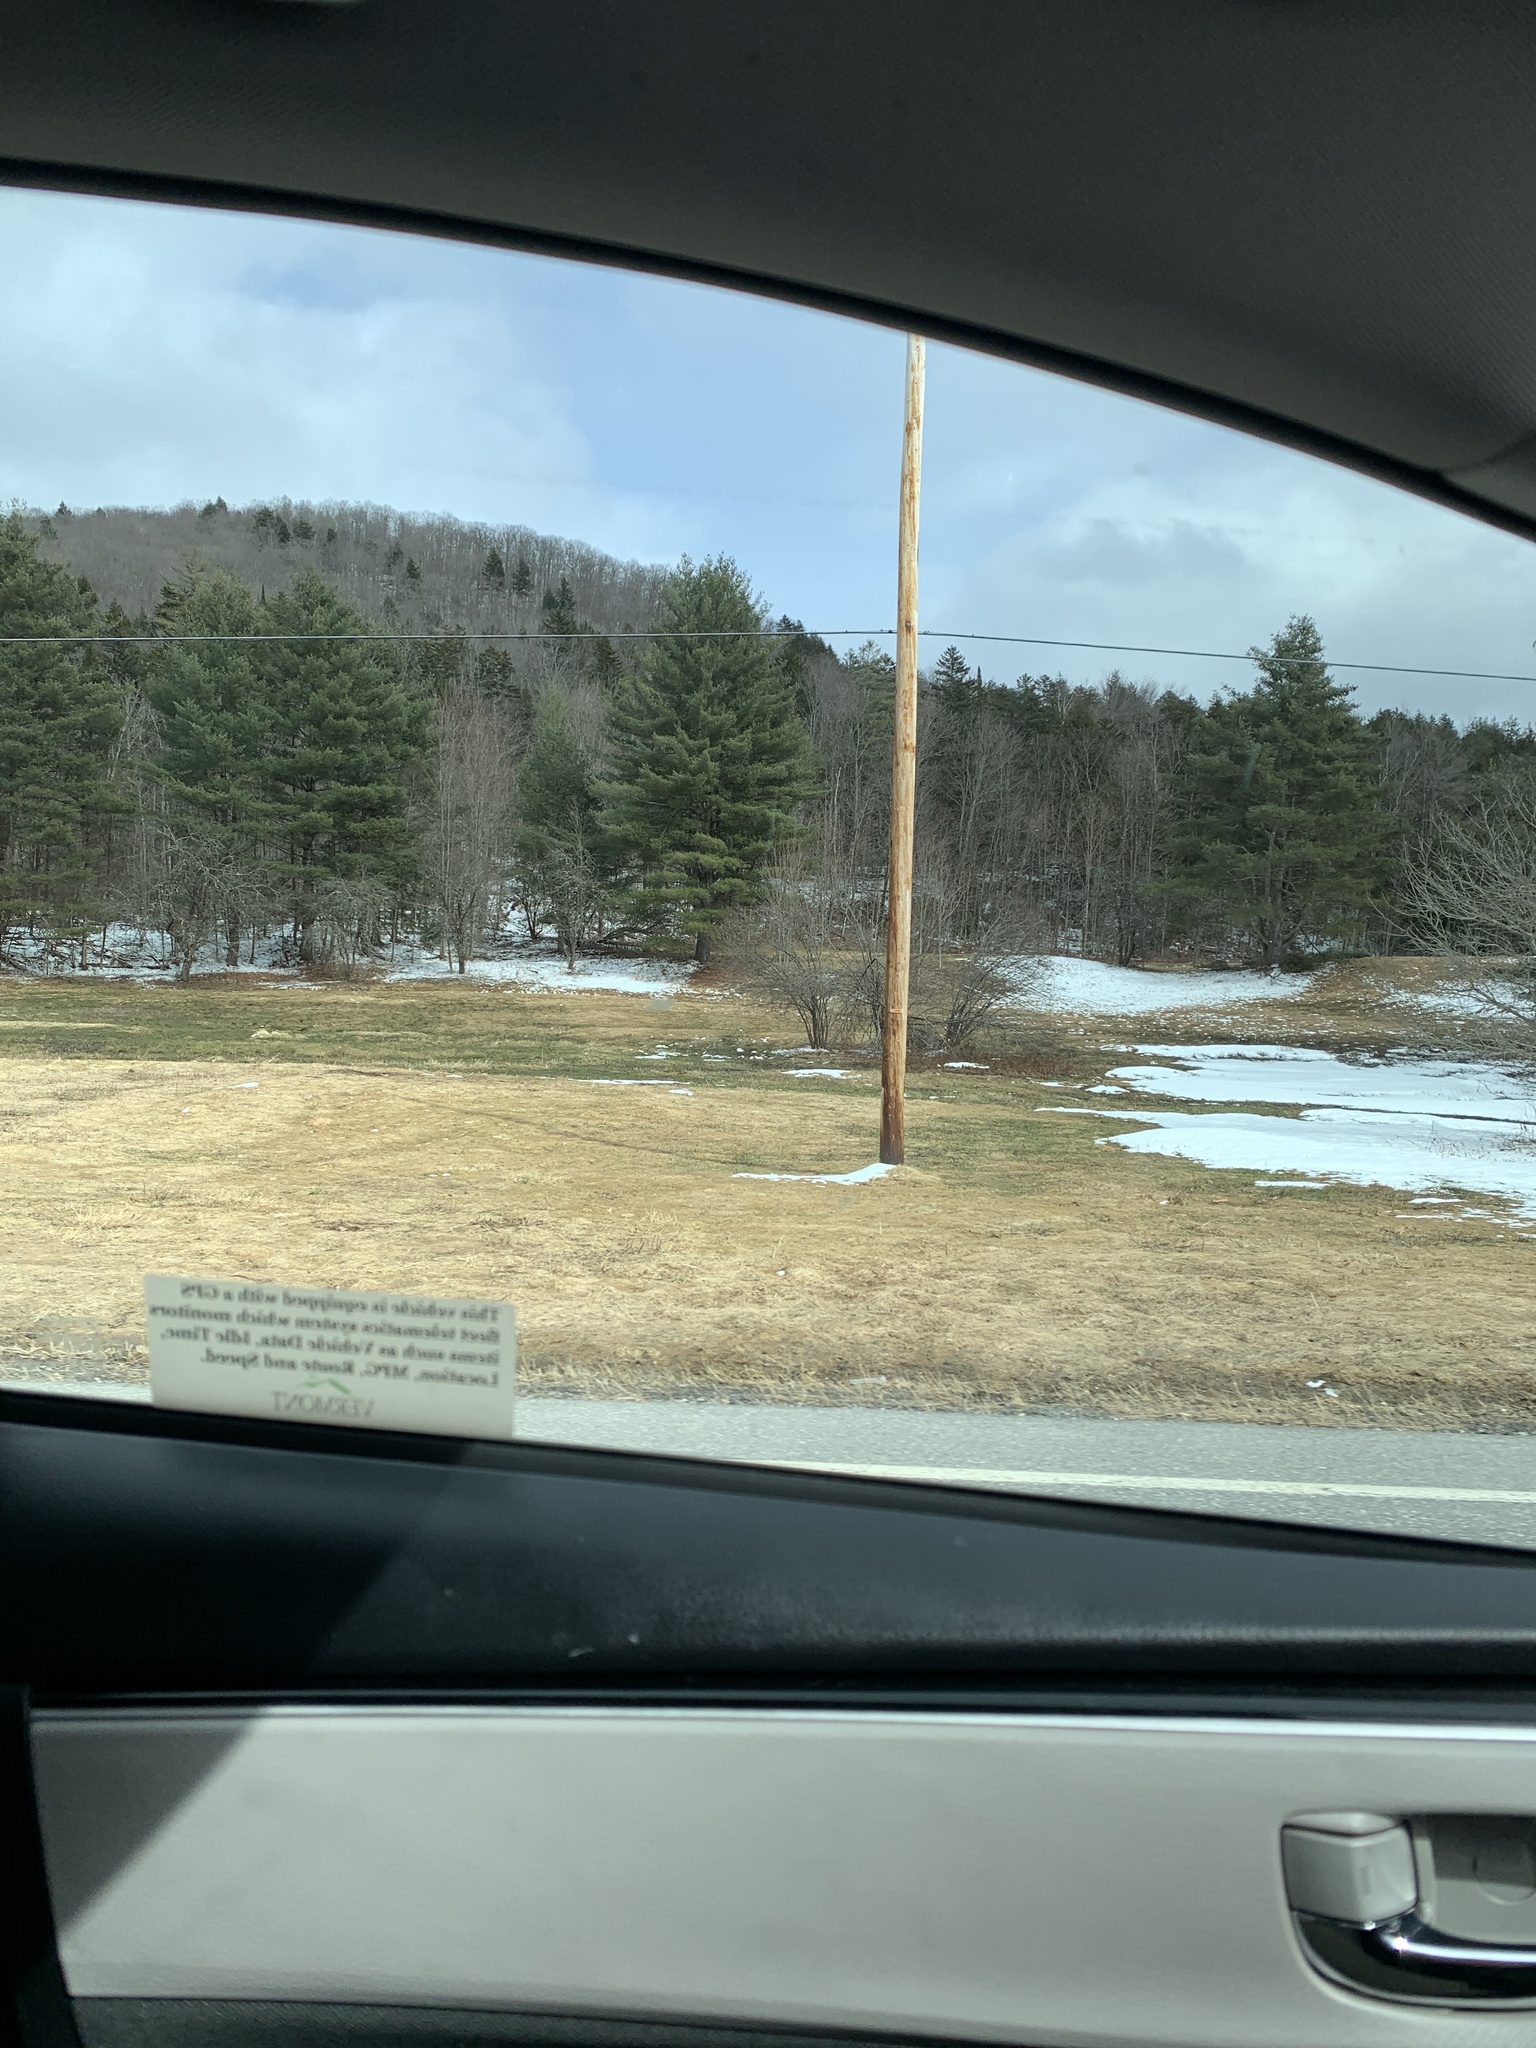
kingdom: Plantae
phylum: Tracheophyta
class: Pinopsida
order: Pinales
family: Pinaceae
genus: Pinus
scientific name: Pinus strobus
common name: Weymouth pine
